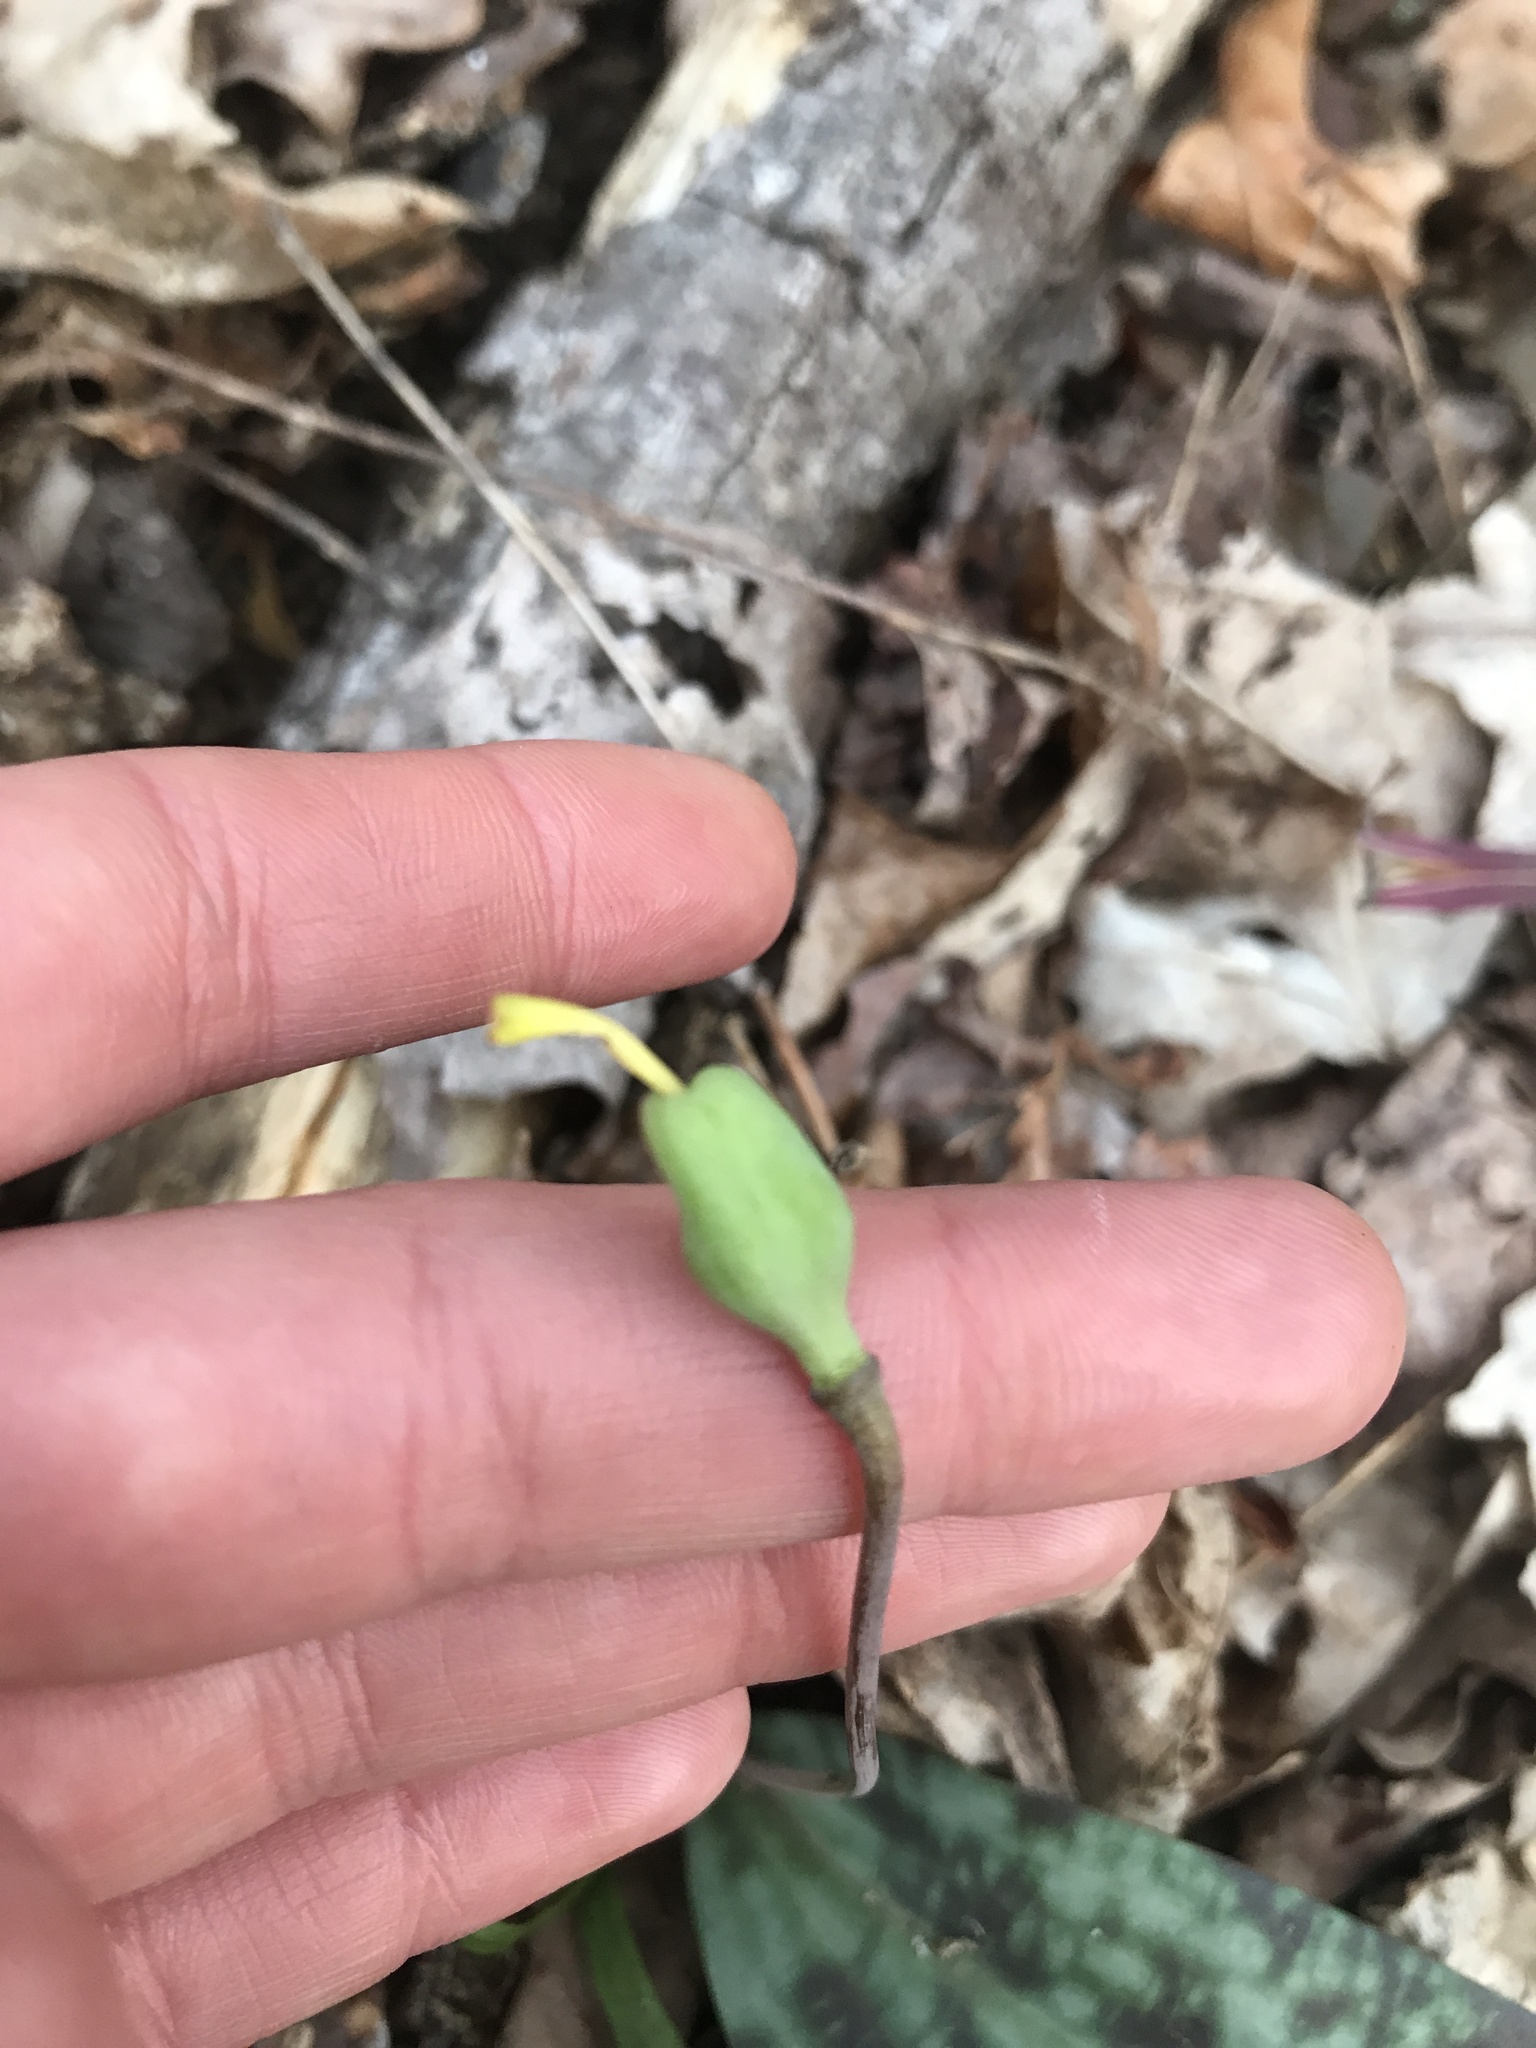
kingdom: Plantae
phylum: Tracheophyta
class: Liliopsida
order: Liliales
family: Liliaceae
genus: Erythronium
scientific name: Erythronium umbilicatum
